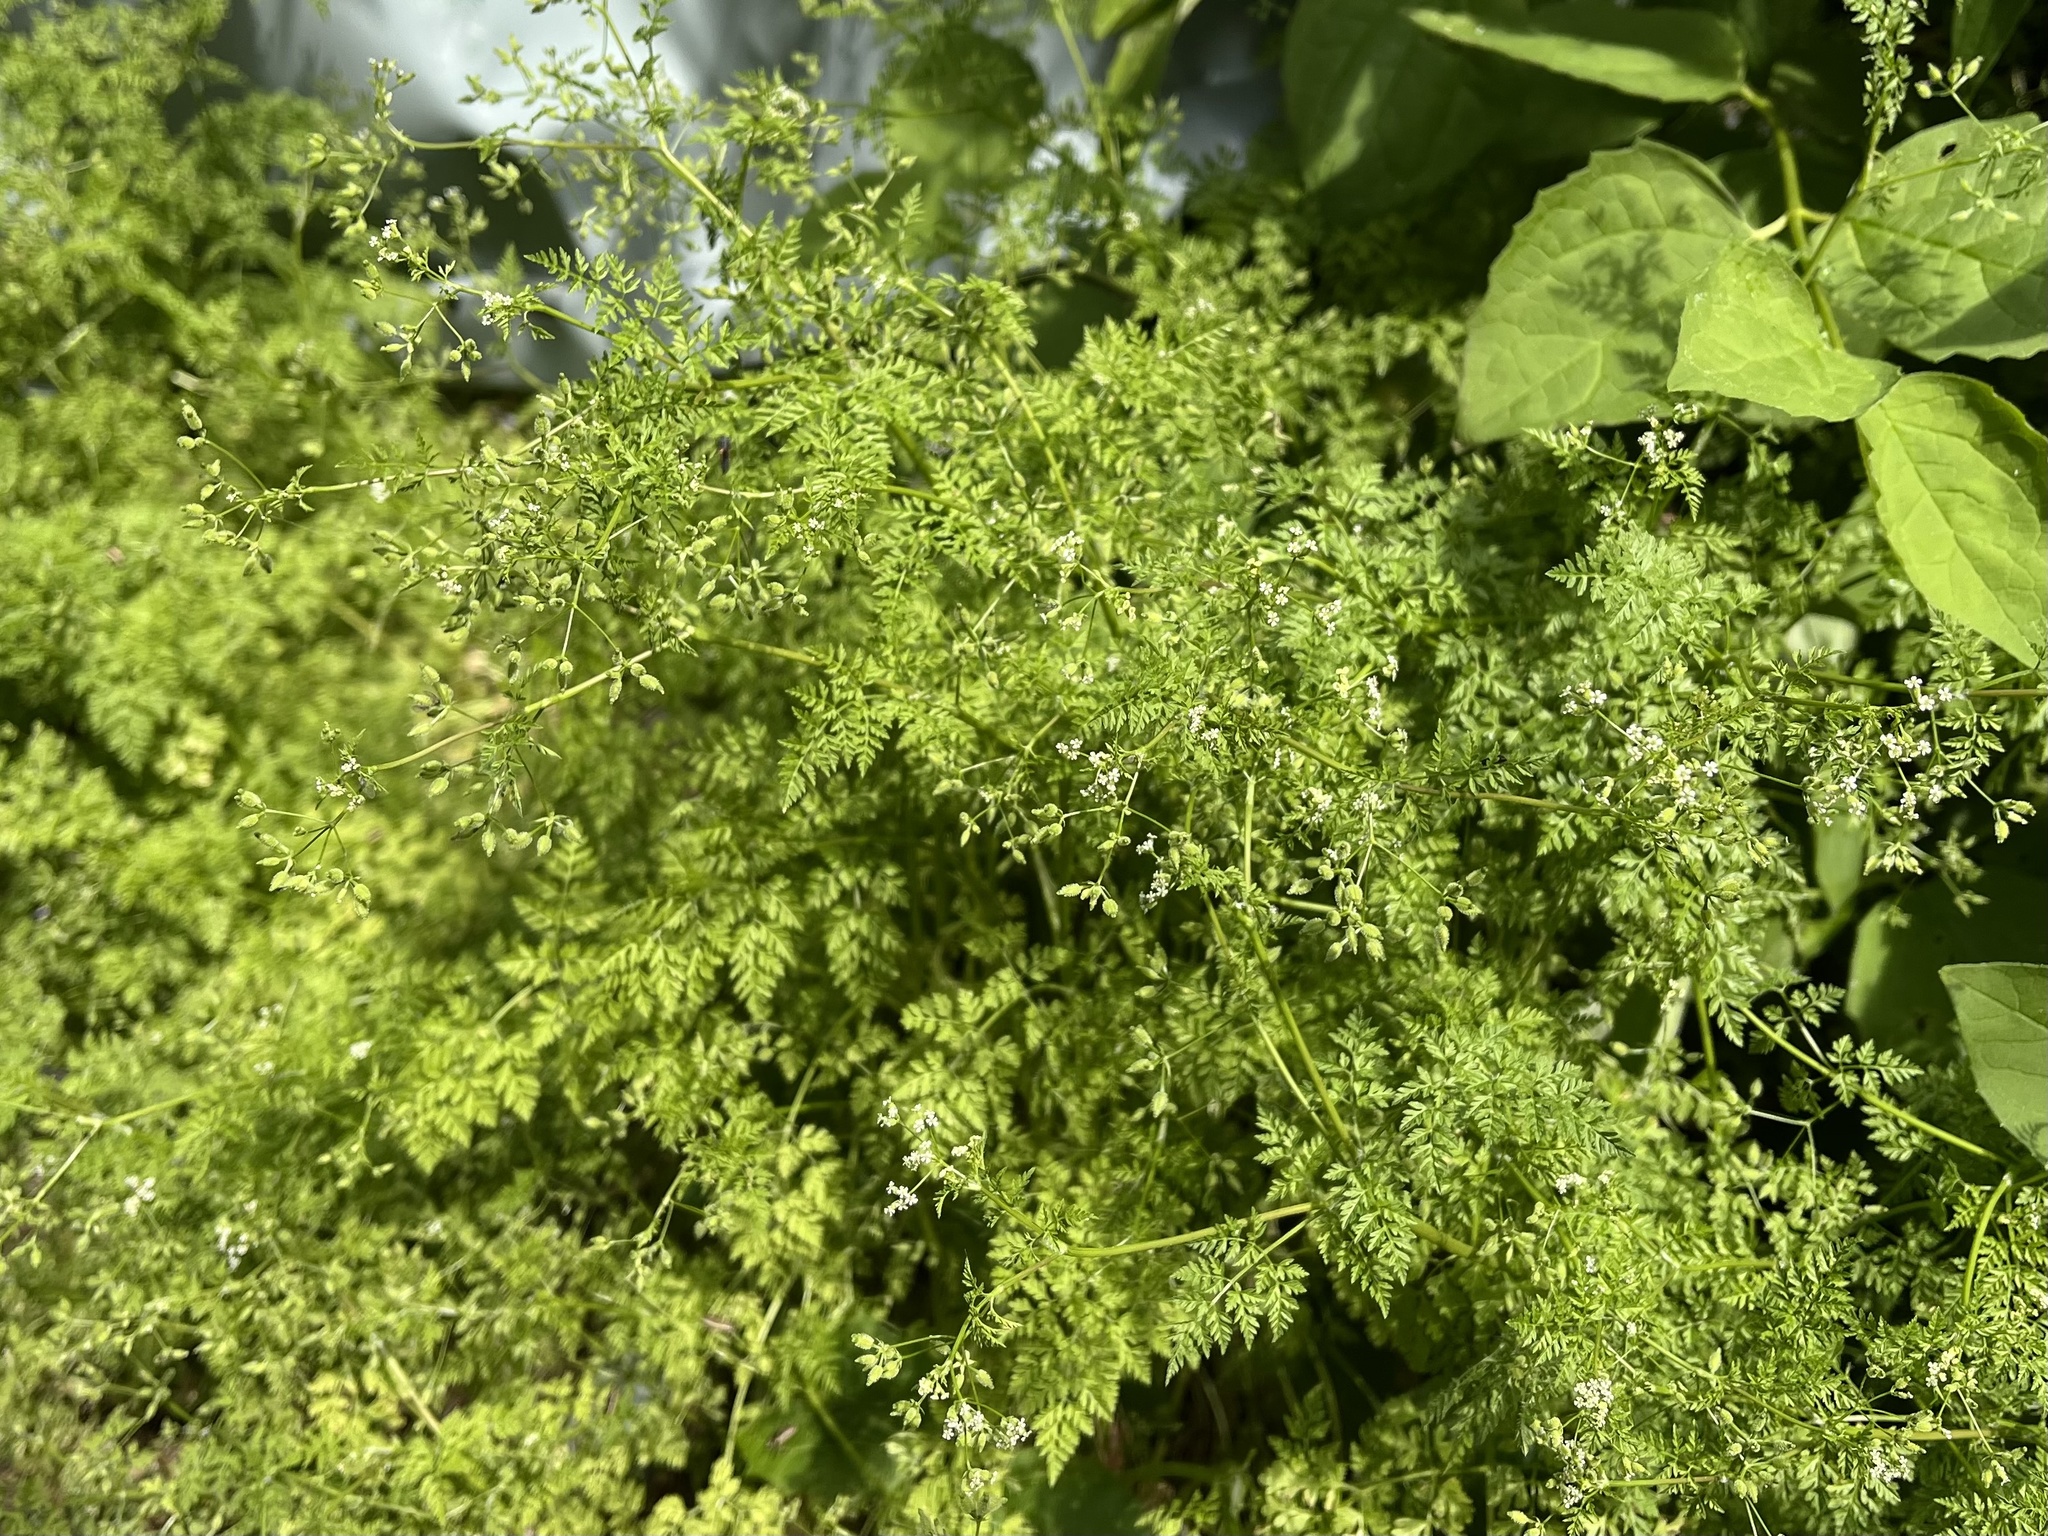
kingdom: Plantae
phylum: Tracheophyta
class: Magnoliopsida
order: Apiales
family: Apiaceae
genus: Anthriscus
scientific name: Anthriscus caucalis
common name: Bur chervil
